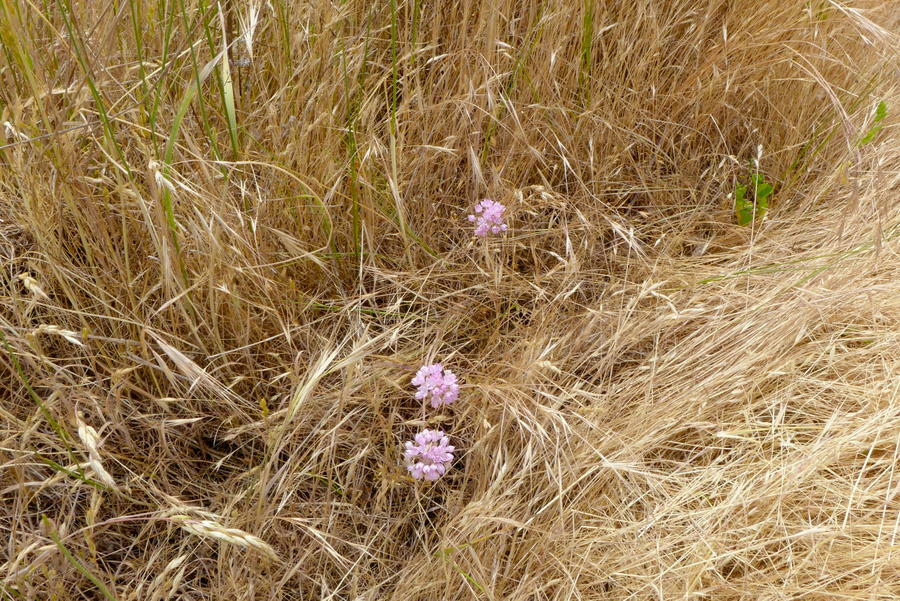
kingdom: Plantae
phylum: Tracheophyta
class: Liliopsida
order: Asparagales
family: Amaryllidaceae
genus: Allium
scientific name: Allium amplectens
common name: Narrow-leaved onion
